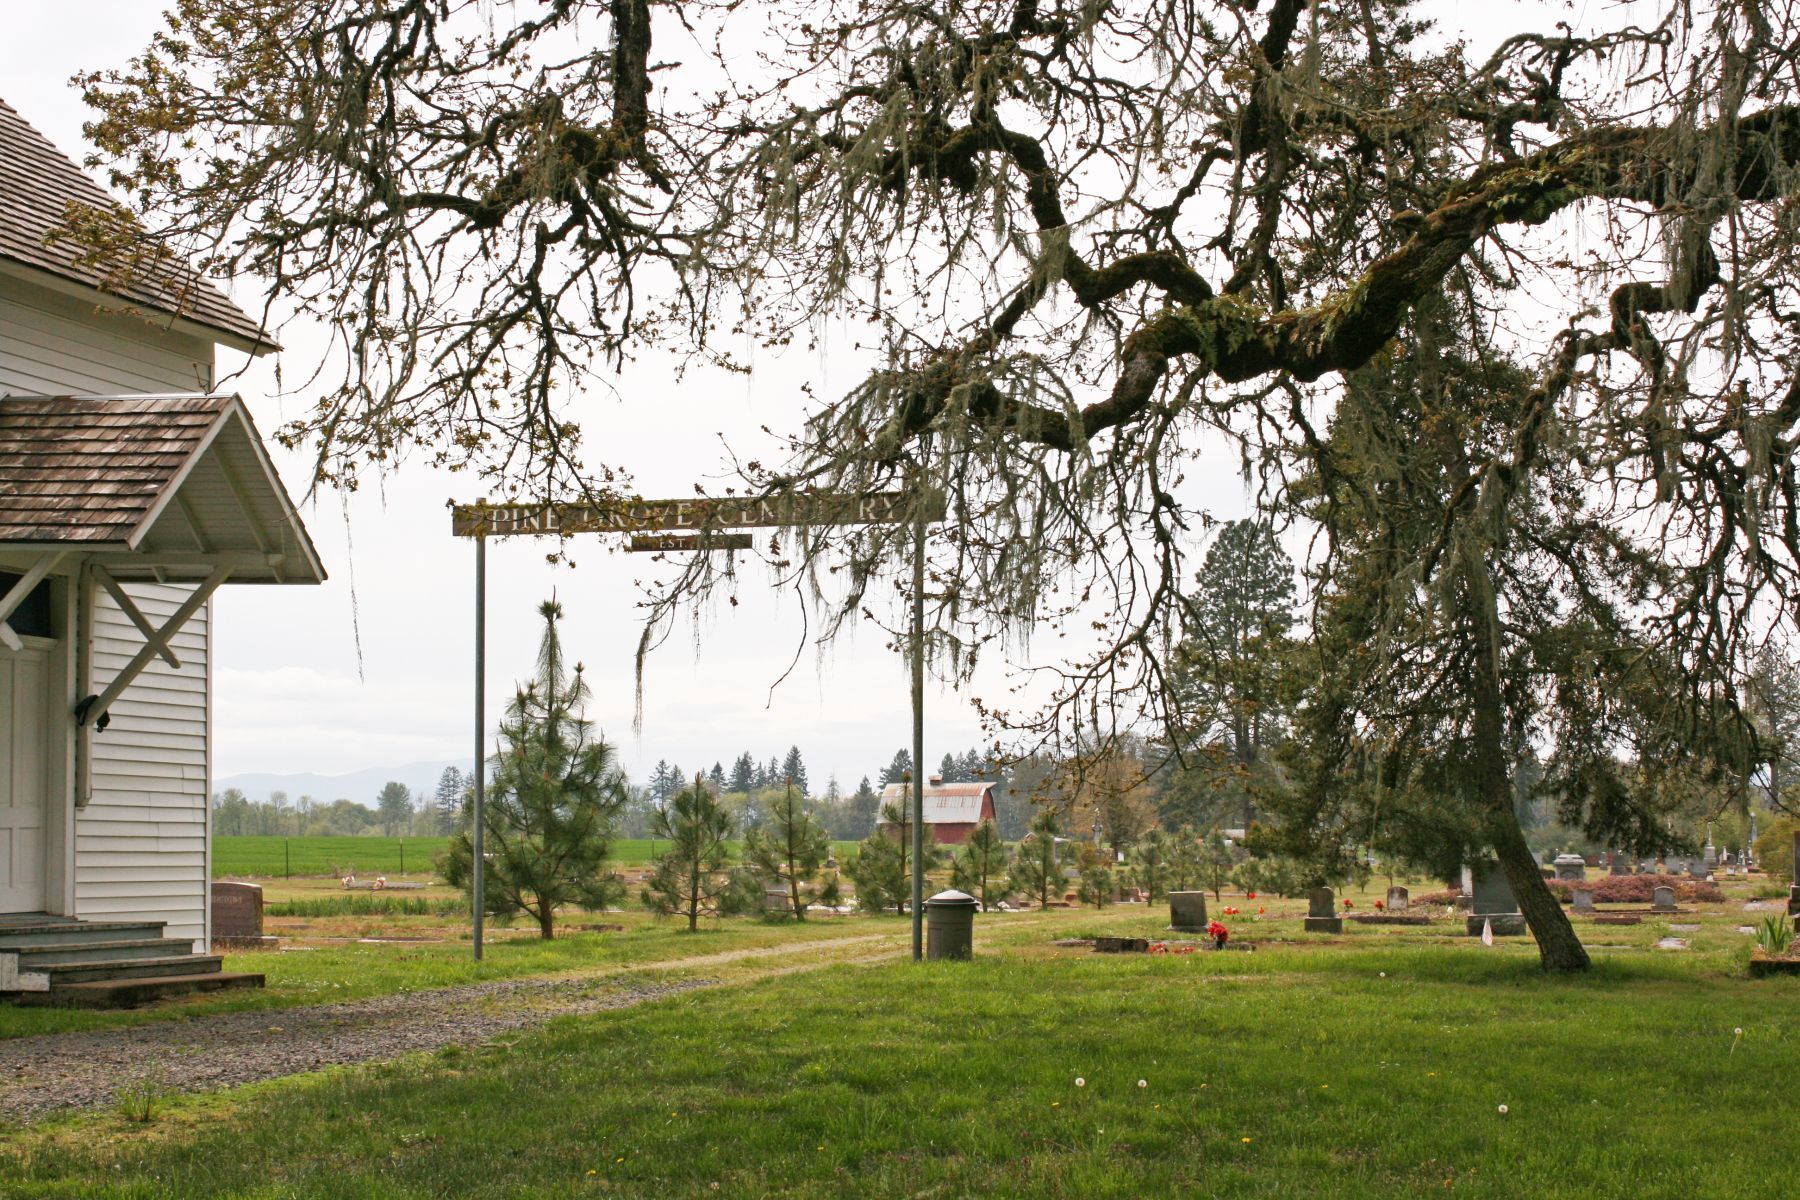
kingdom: Plantae
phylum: Tracheophyta
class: Magnoliopsida
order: Fagales
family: Fagaceae
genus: Quercus
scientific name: Quercus garryana
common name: Garry oak
